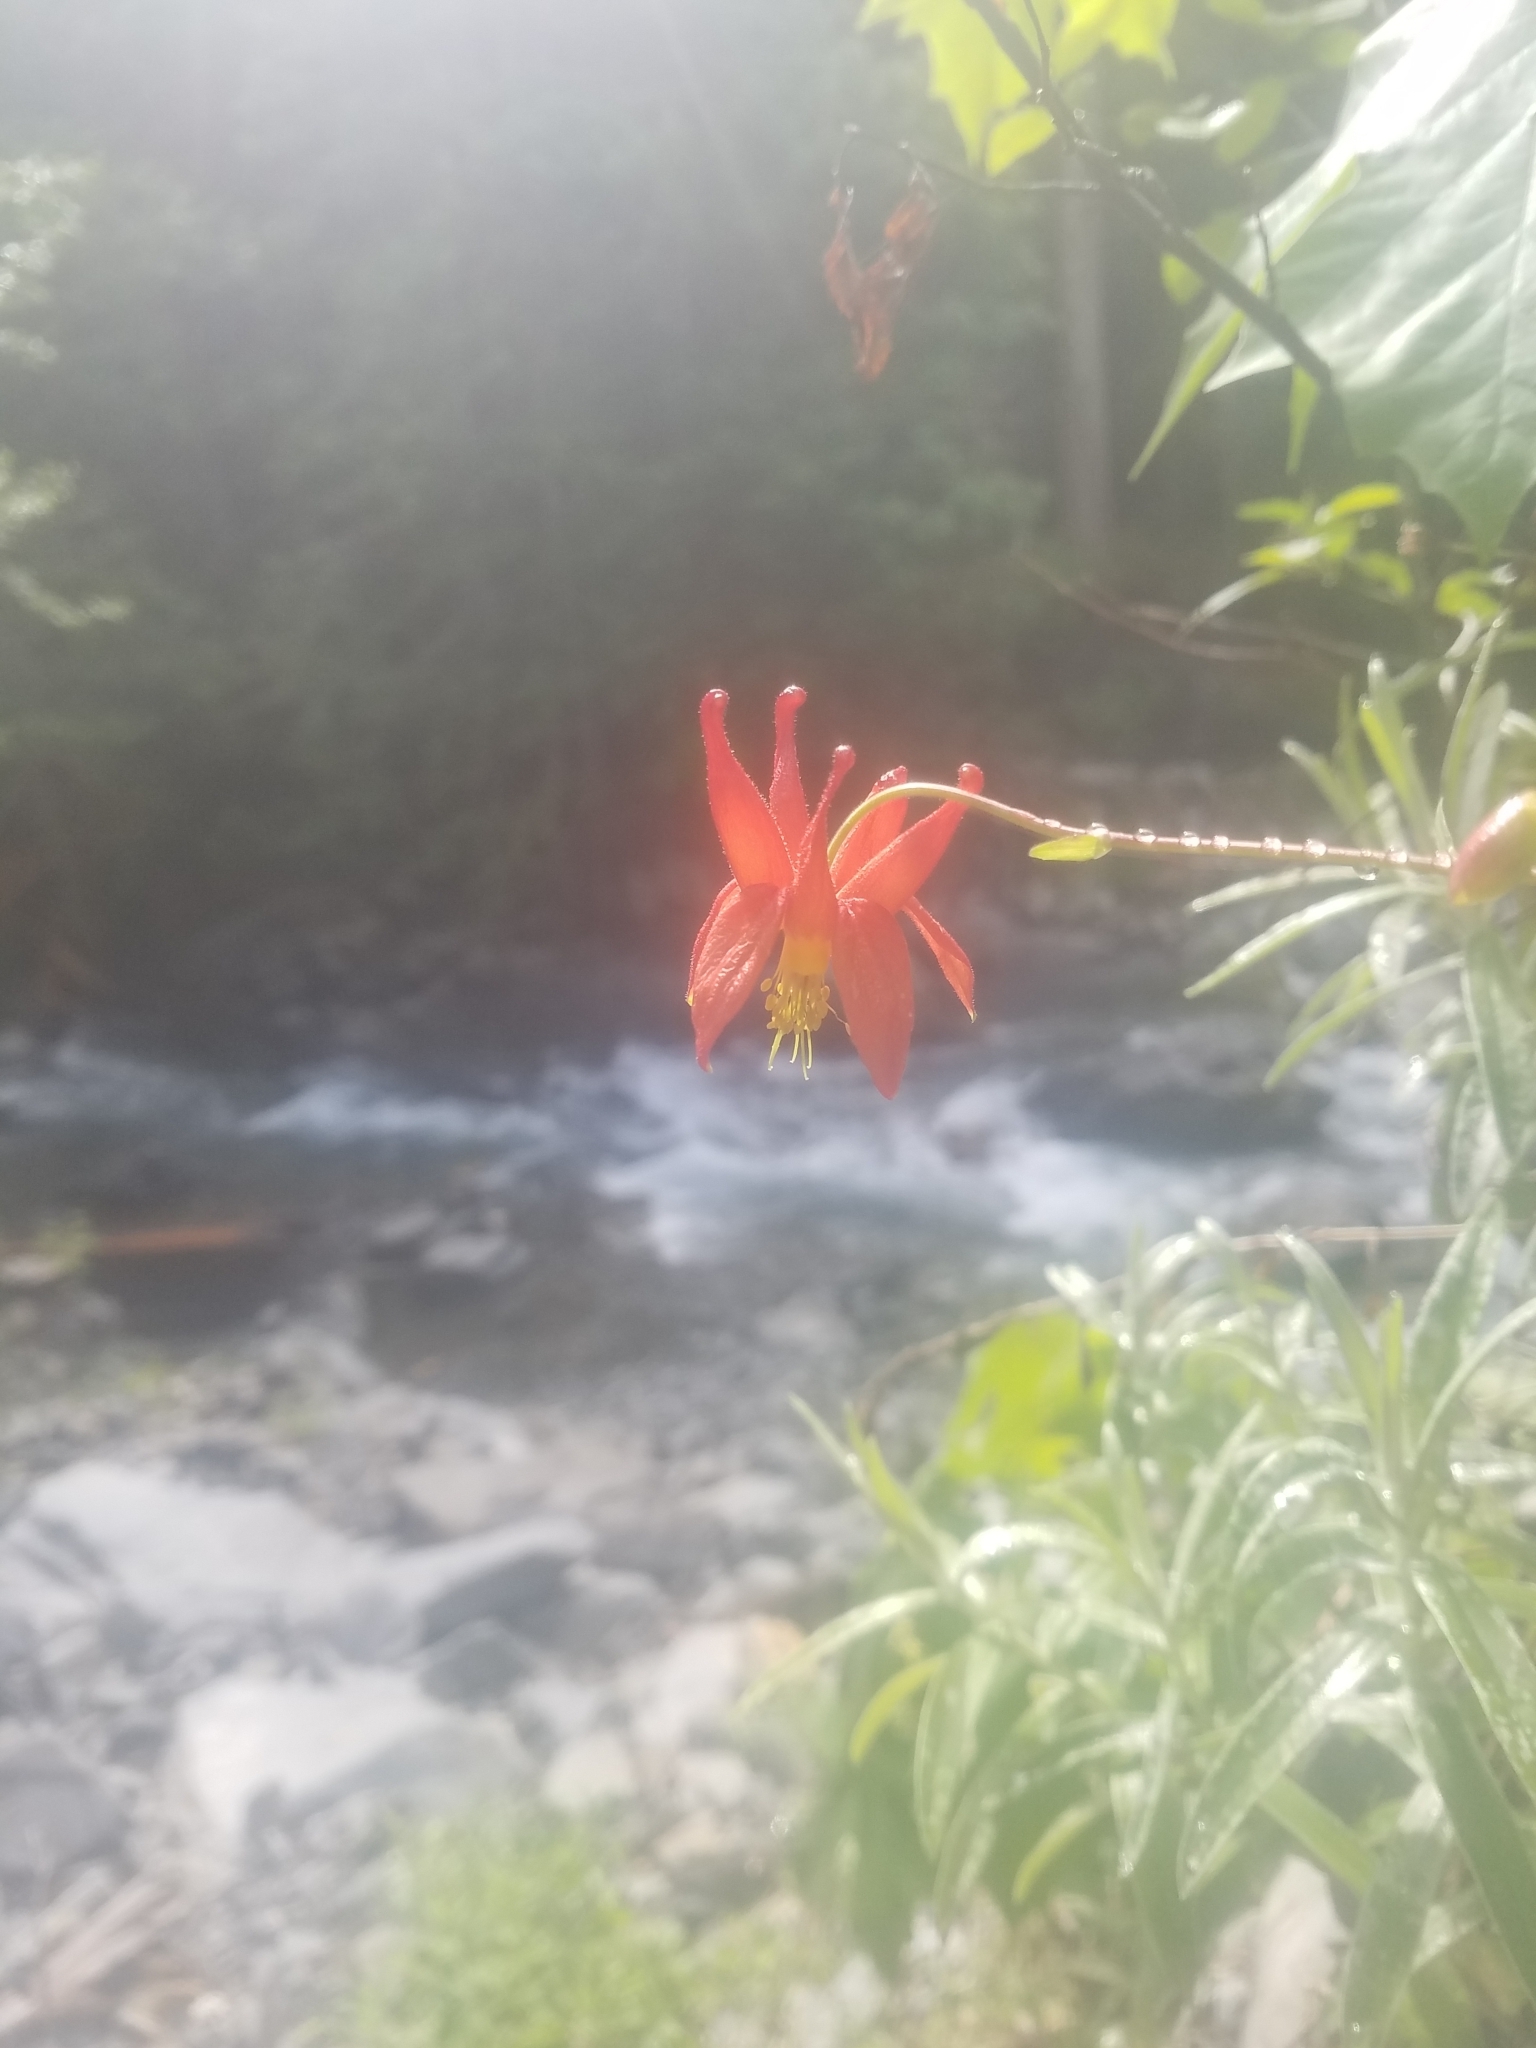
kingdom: Plantae
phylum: Tracheophyta
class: Magnoliopsida
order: Ranunculales
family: Ranunculaceae
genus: Aquilegia
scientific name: Aquilegia formosa
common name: Sitka columbine
